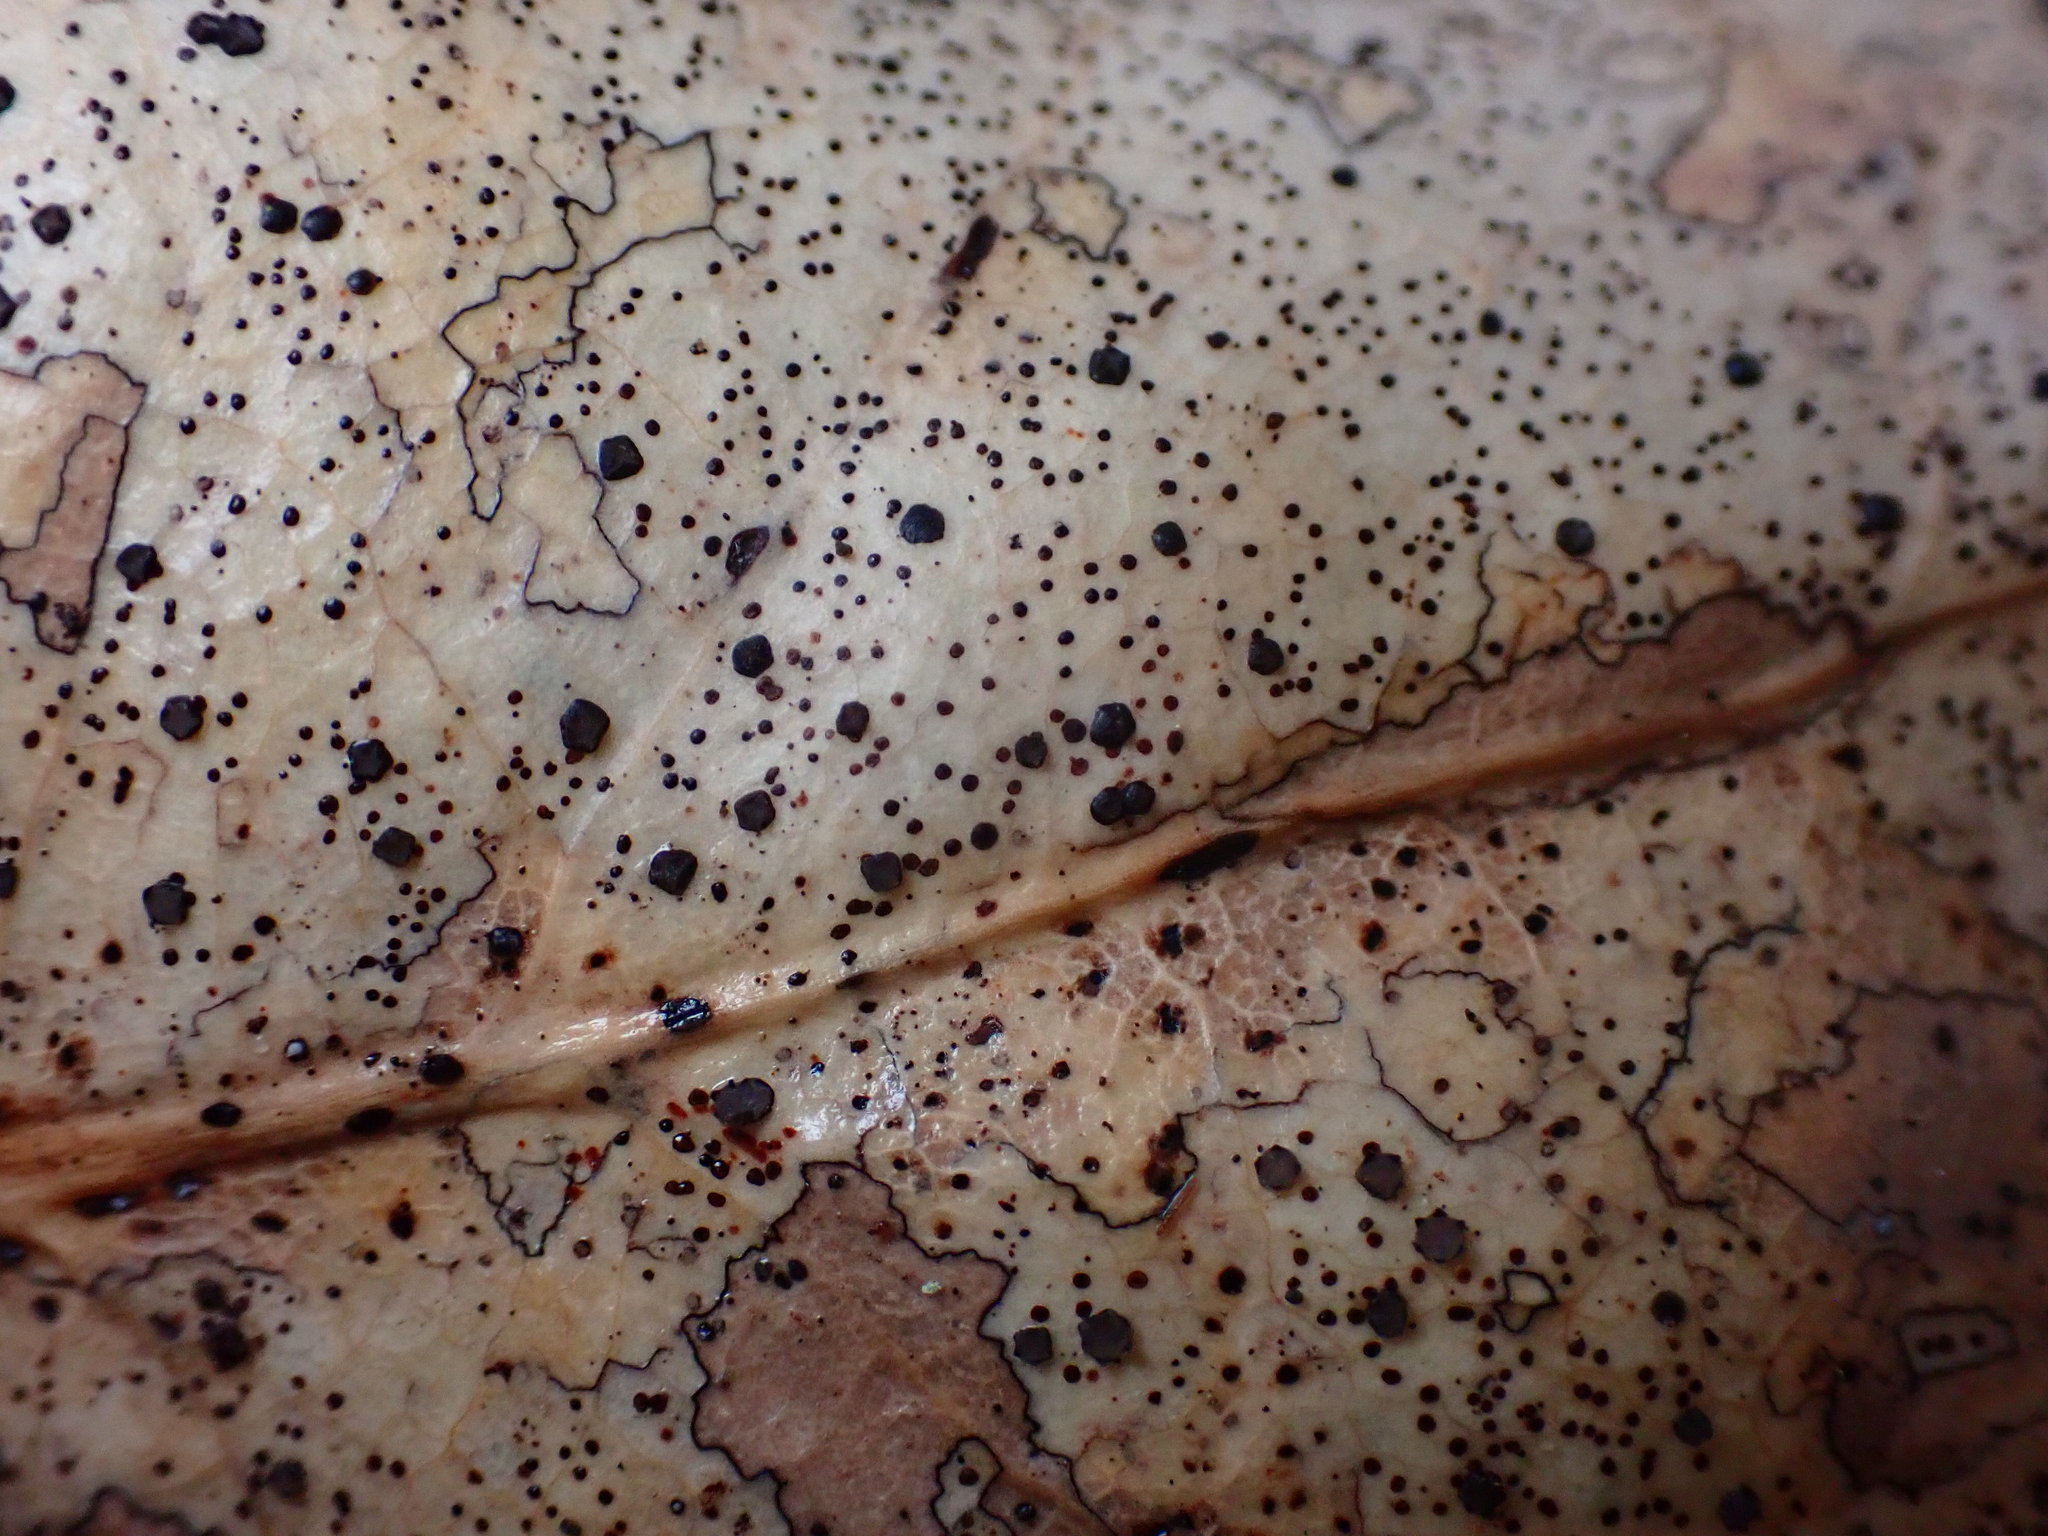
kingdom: Fungi
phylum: Ascomycota
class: Leotiomycetes
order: Rhytismatales
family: Rhytismataceae
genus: Coccomyces
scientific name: Coccomyces dentatus
